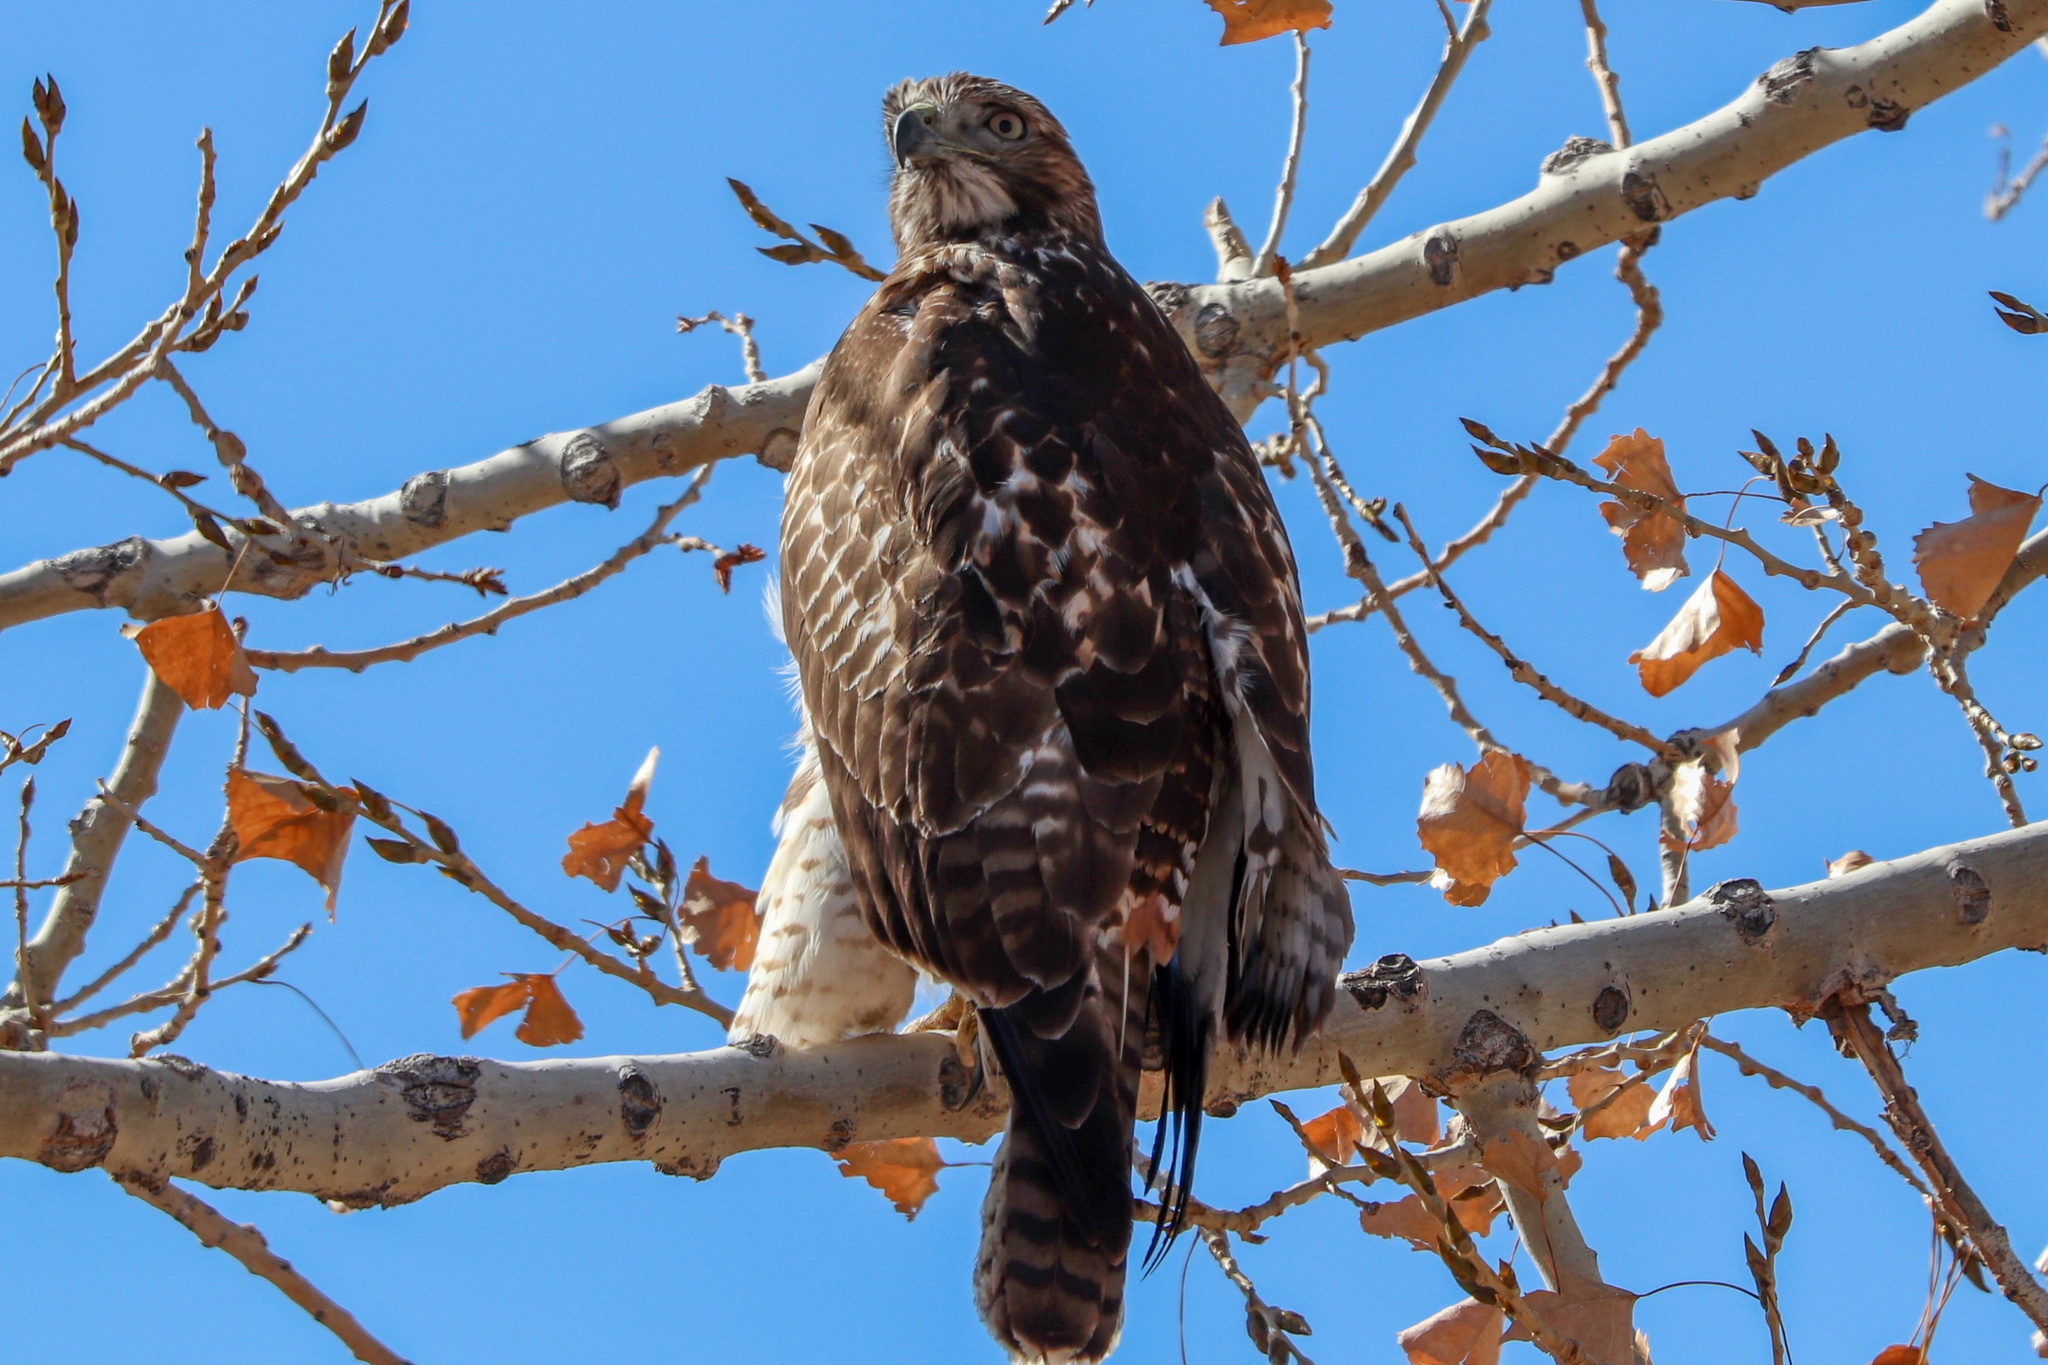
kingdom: Animalia
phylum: Chordata
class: Aves
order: Accipitriformes
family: Accipitridae
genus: Buteo
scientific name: Buteo jamaicensis
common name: Red-tailed hawk
